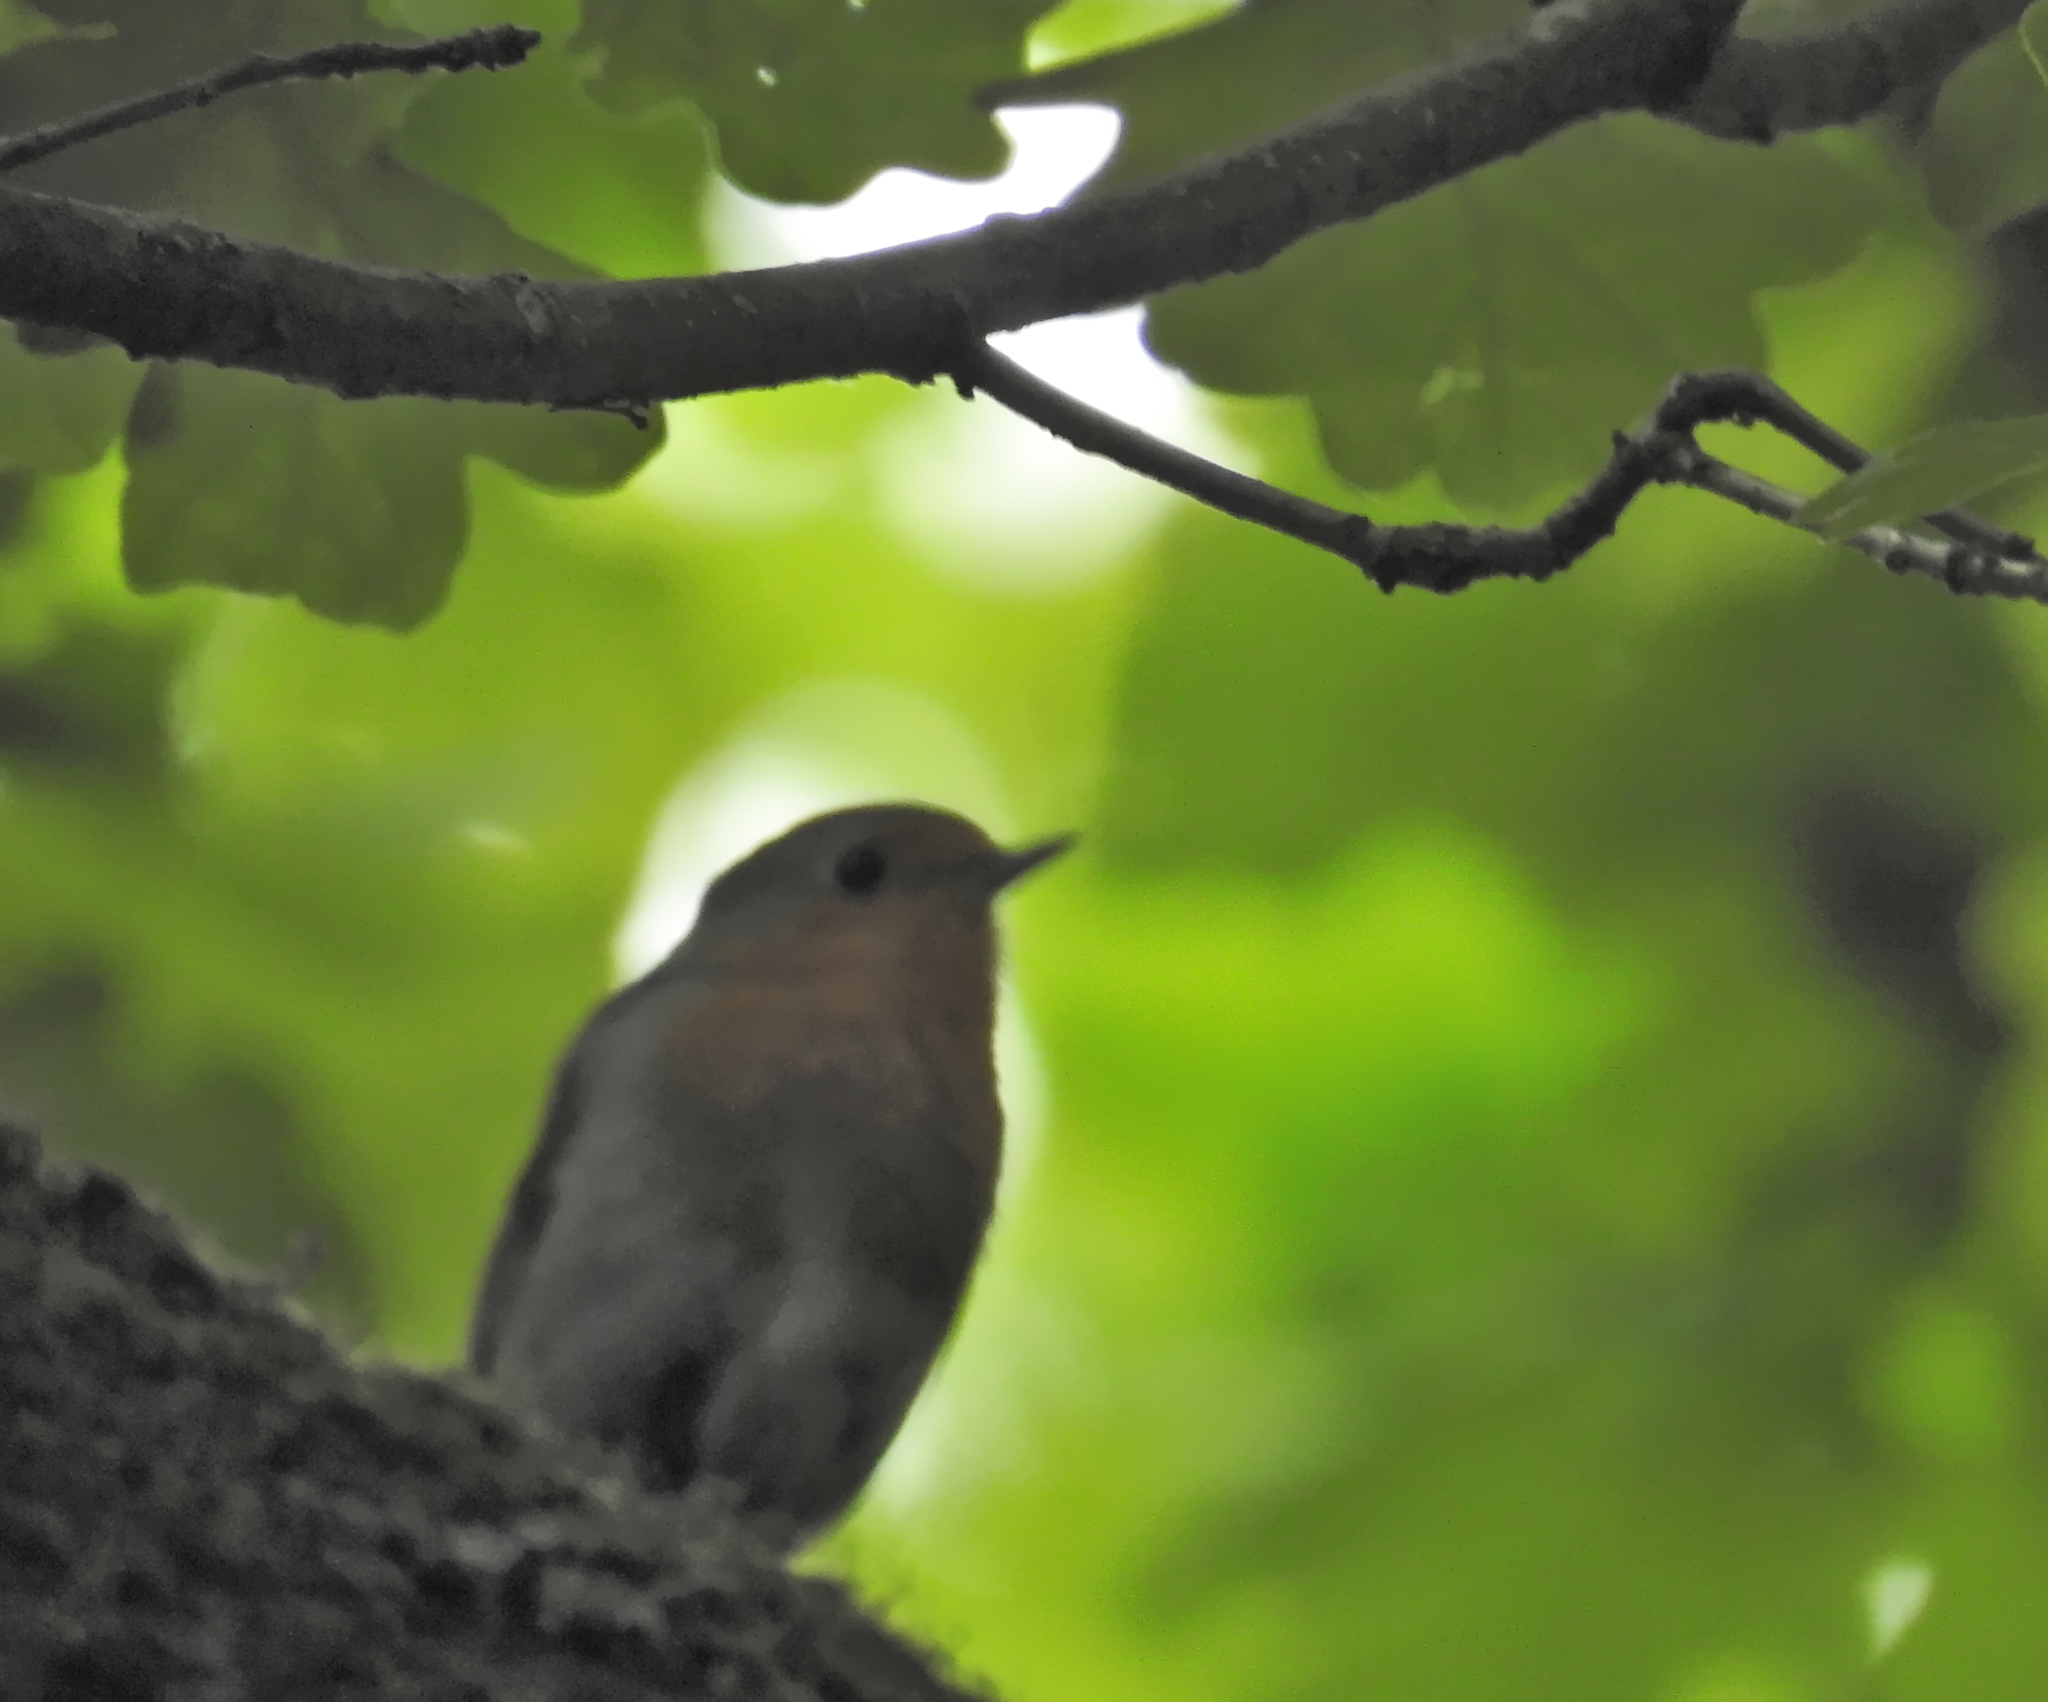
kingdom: Animalia
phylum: Chordata
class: Aves
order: Passeriformes
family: Muscicapidae
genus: Erithacus
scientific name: Erithacus rubecula
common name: European robin
